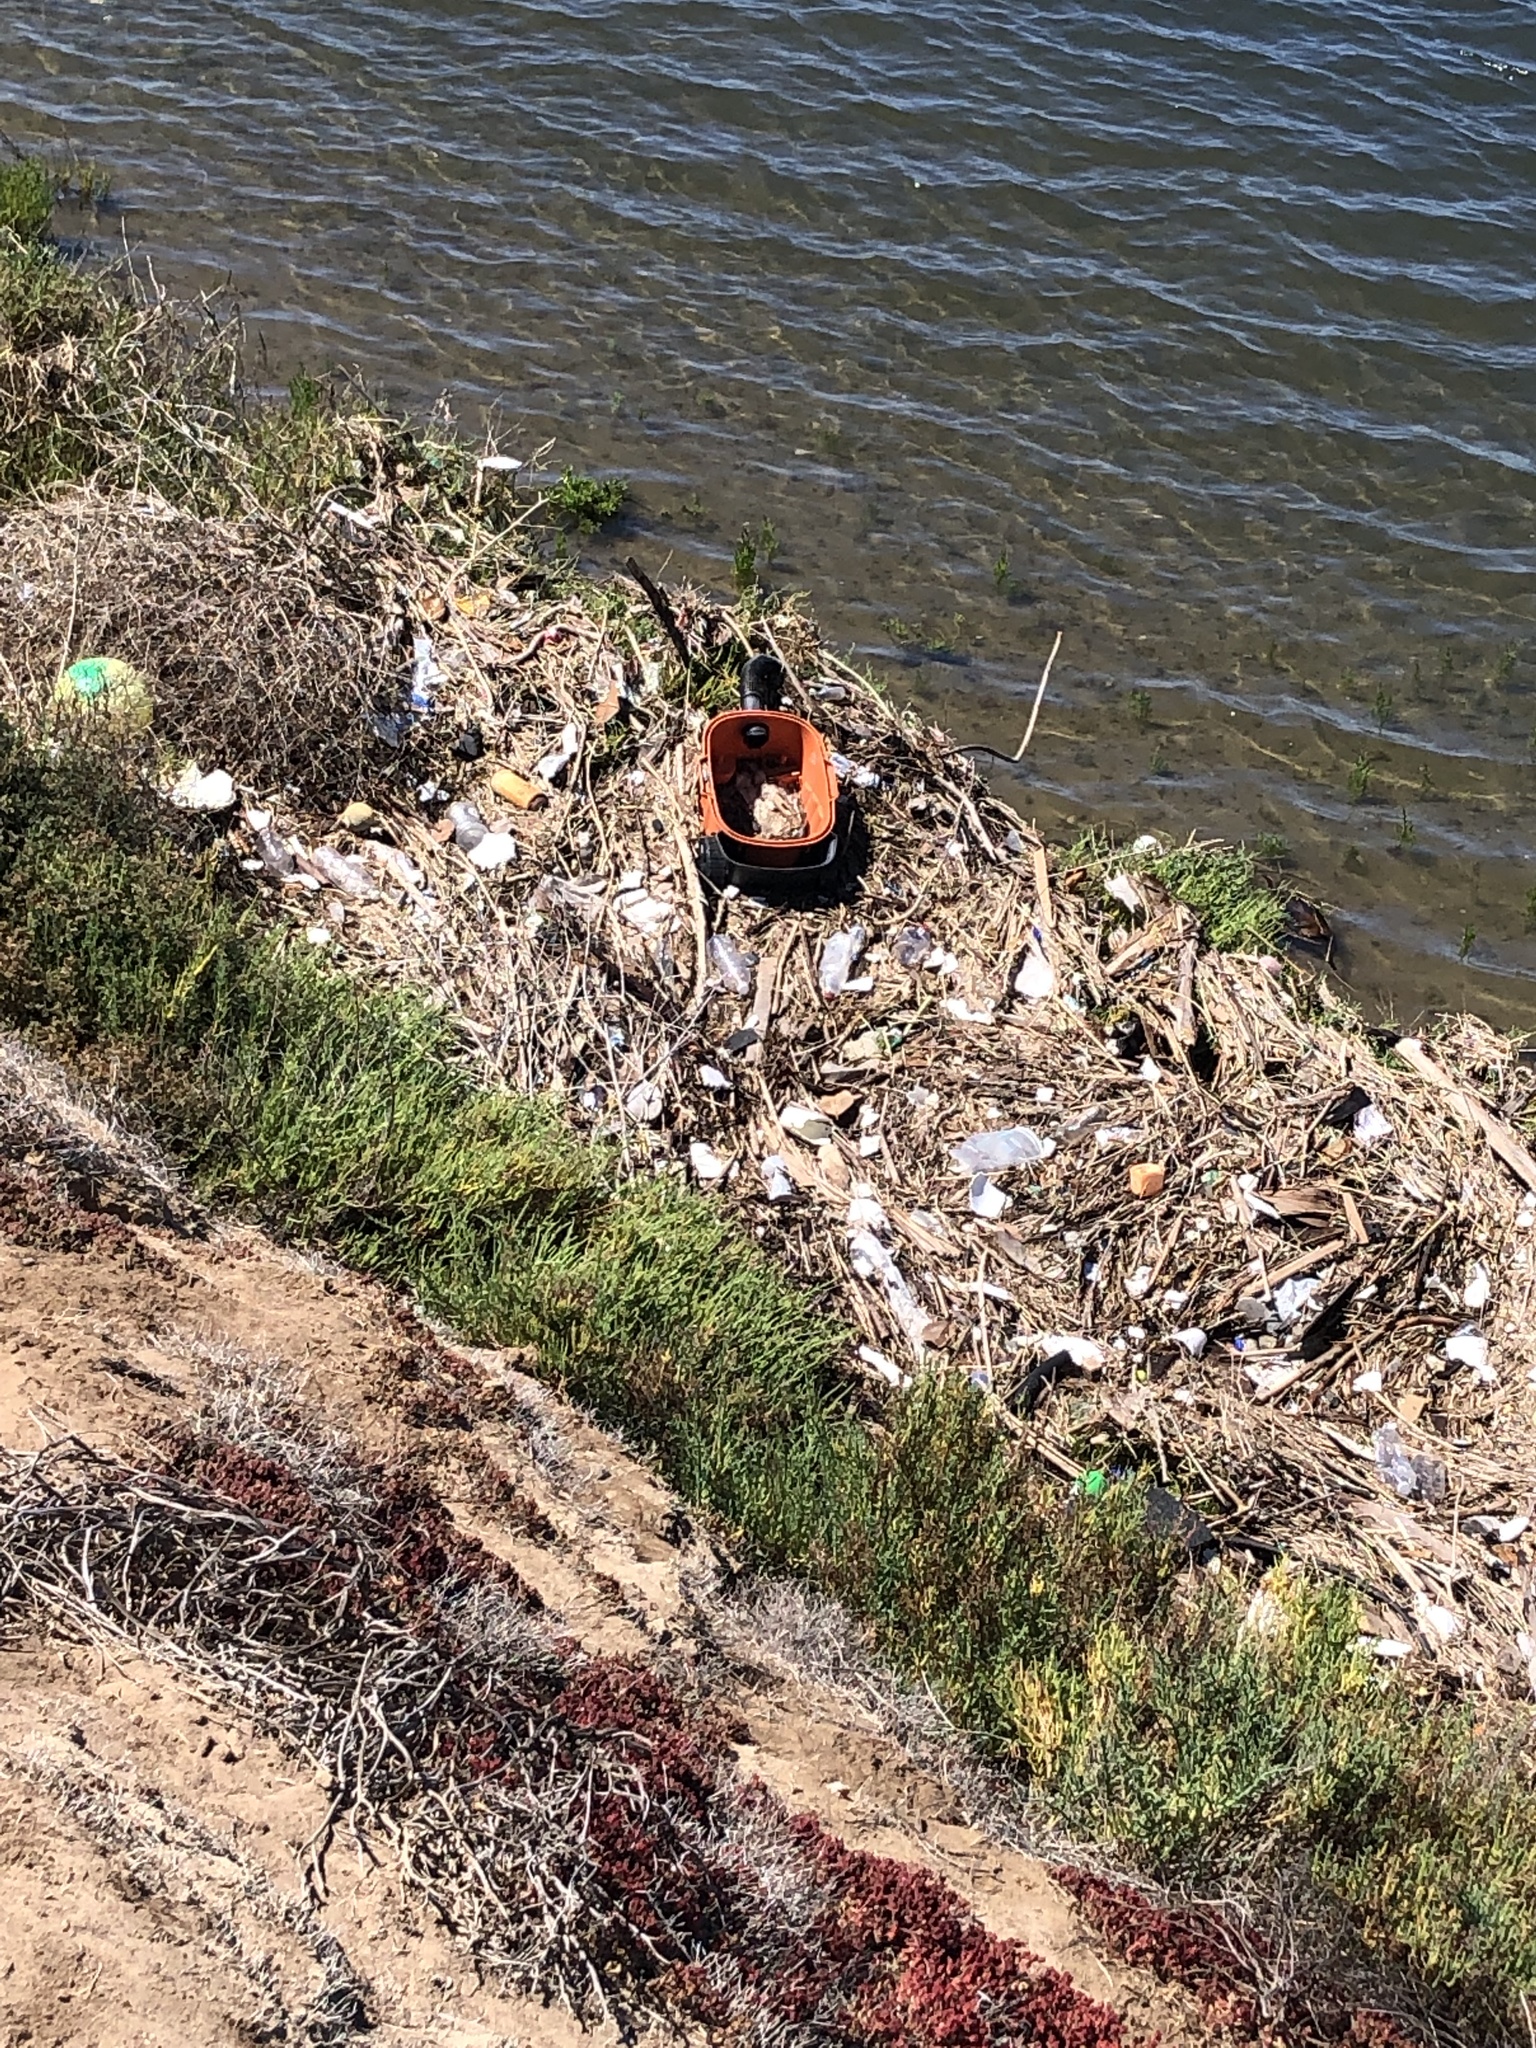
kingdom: Plantae
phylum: Tracheophyta
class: Magnoliopsida
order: Caryophyllales
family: Amaranthaceae
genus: Salicornia
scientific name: Salicornia pacifica
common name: Pacific glasswort
